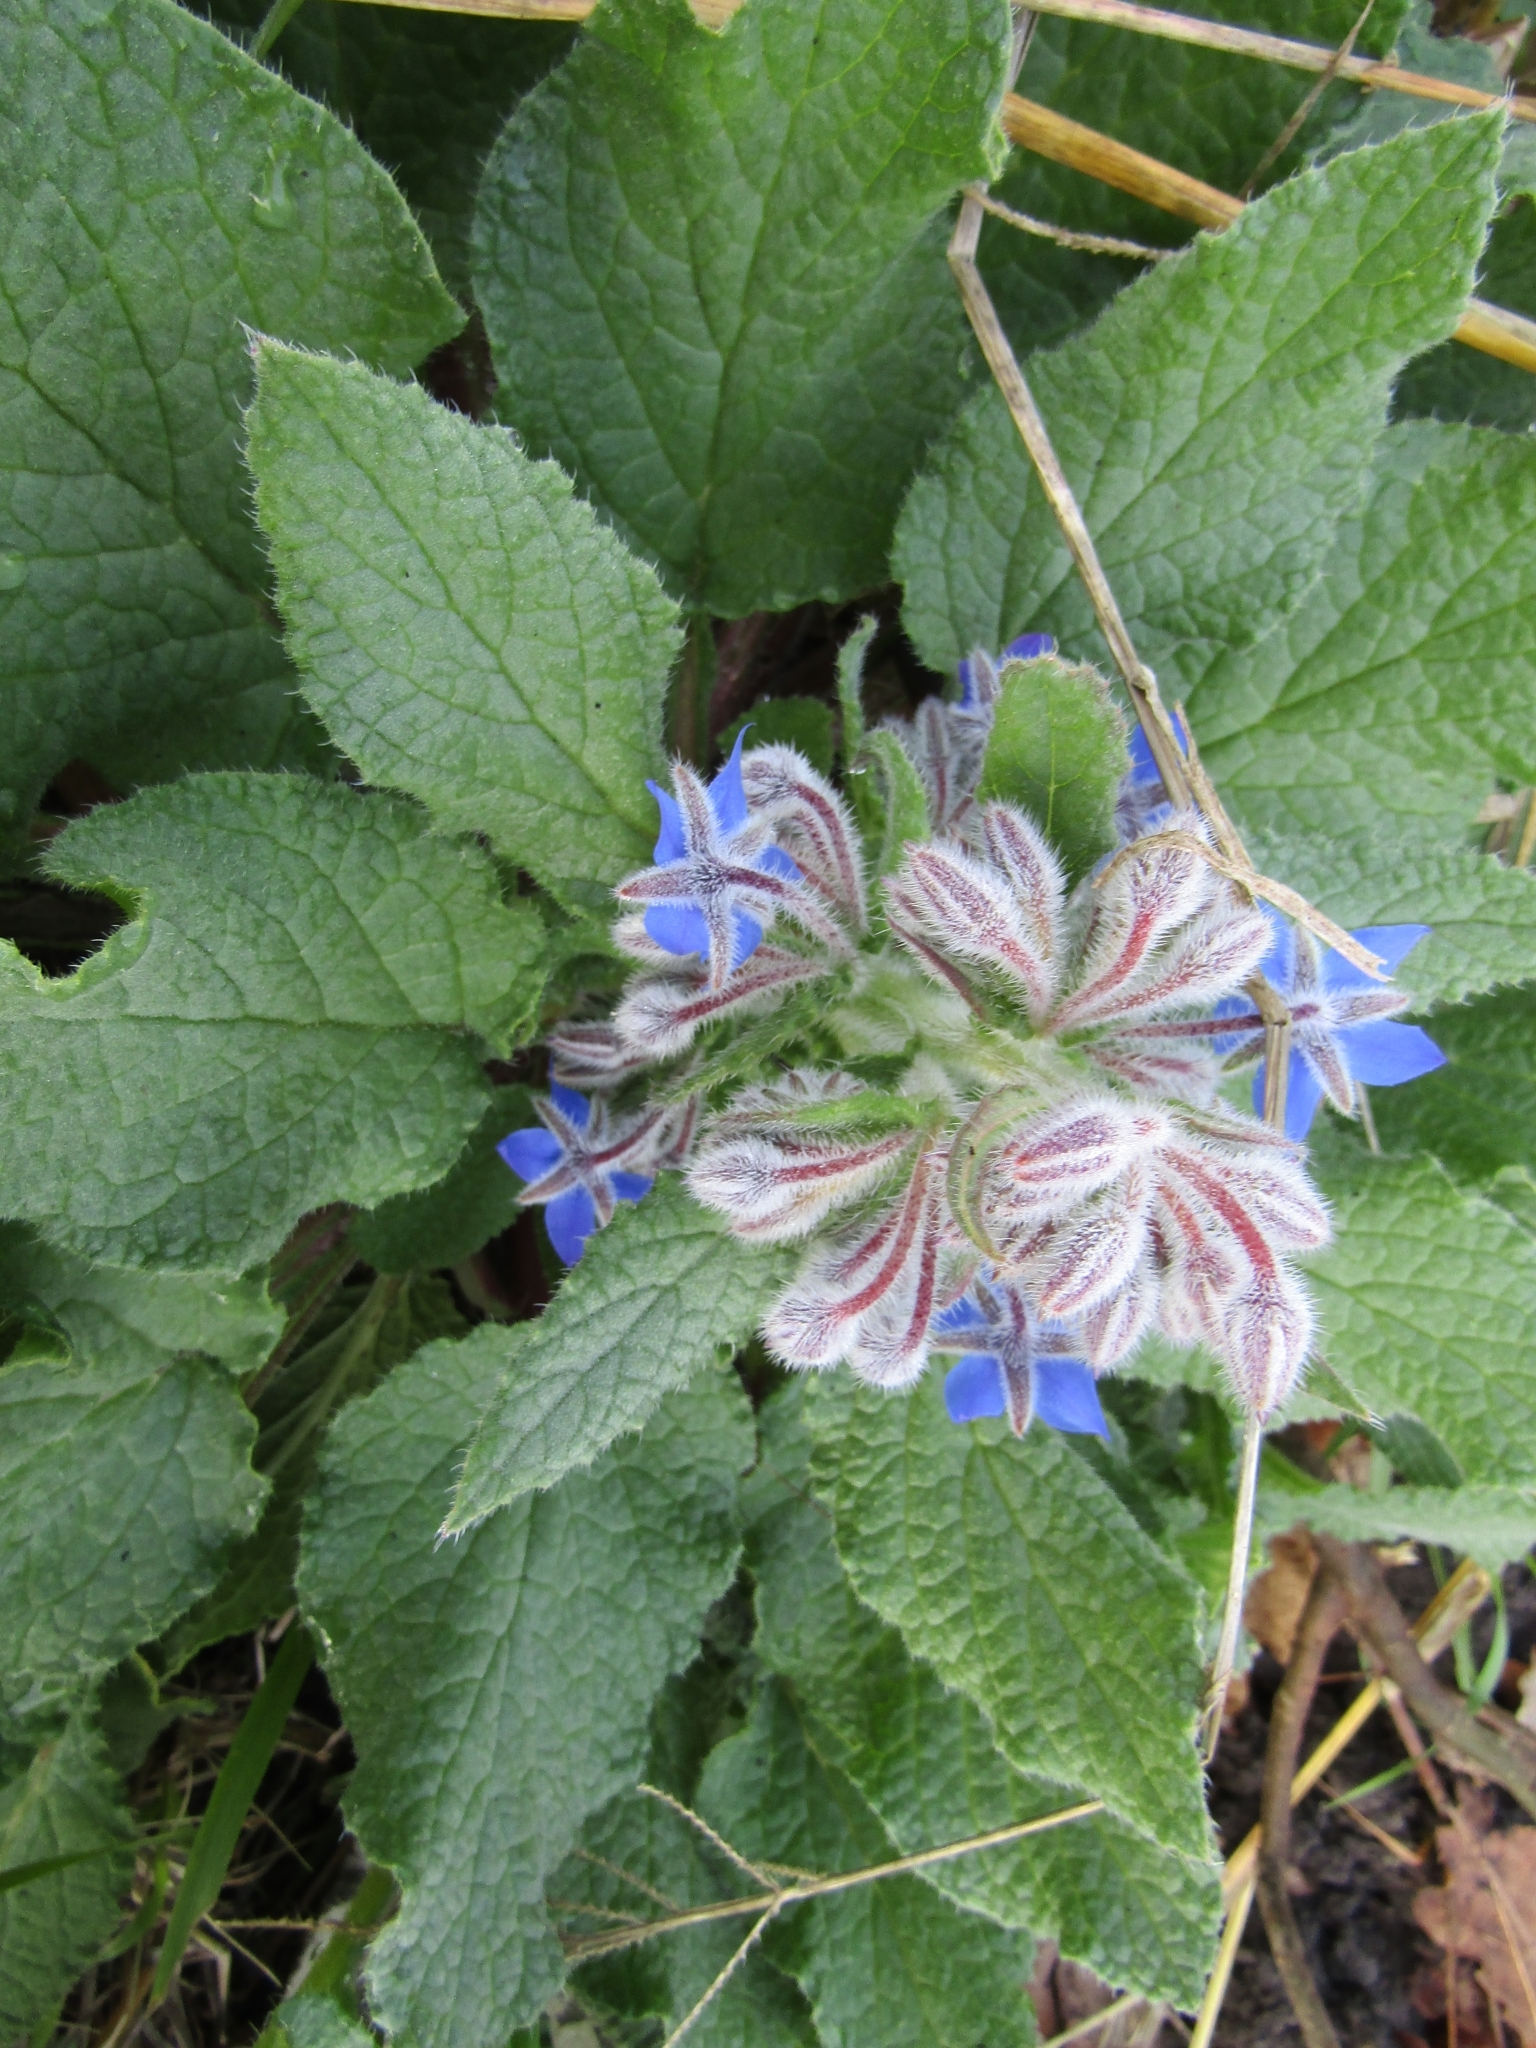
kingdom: Plantae
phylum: Tracheophyta
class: Magnoliopsida
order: Boraginales
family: Boraginaceae
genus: Borago
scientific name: Borago officinalis
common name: Borage
